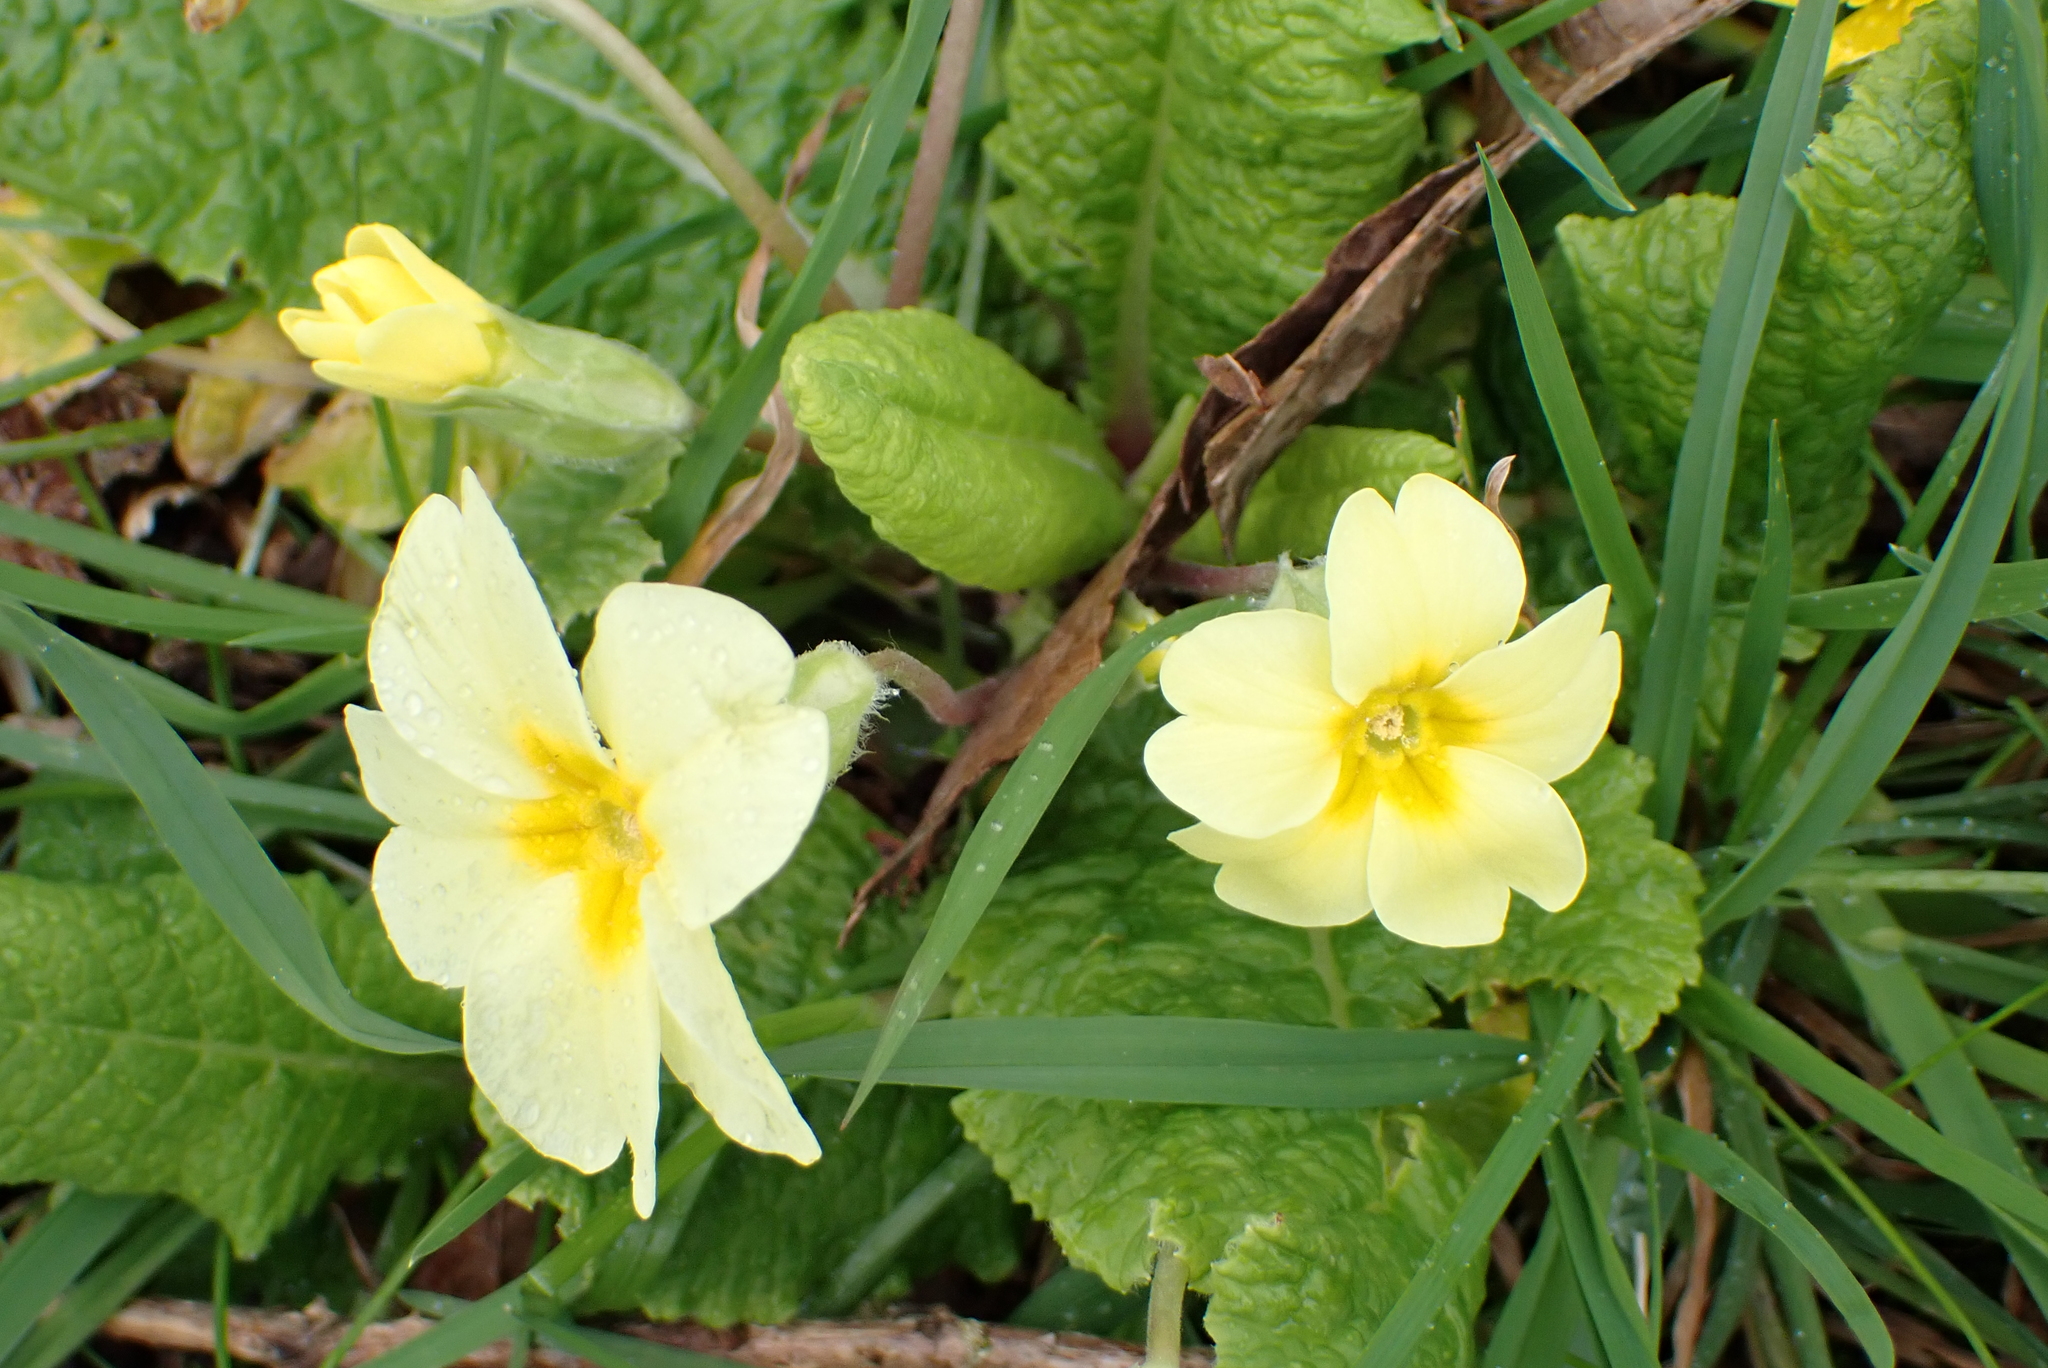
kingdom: Plantae
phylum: Tracheophyta
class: Magnoliopsida
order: Ericales
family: Primulaceae
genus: Primula
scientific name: Primula vulgaris
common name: Primrose
